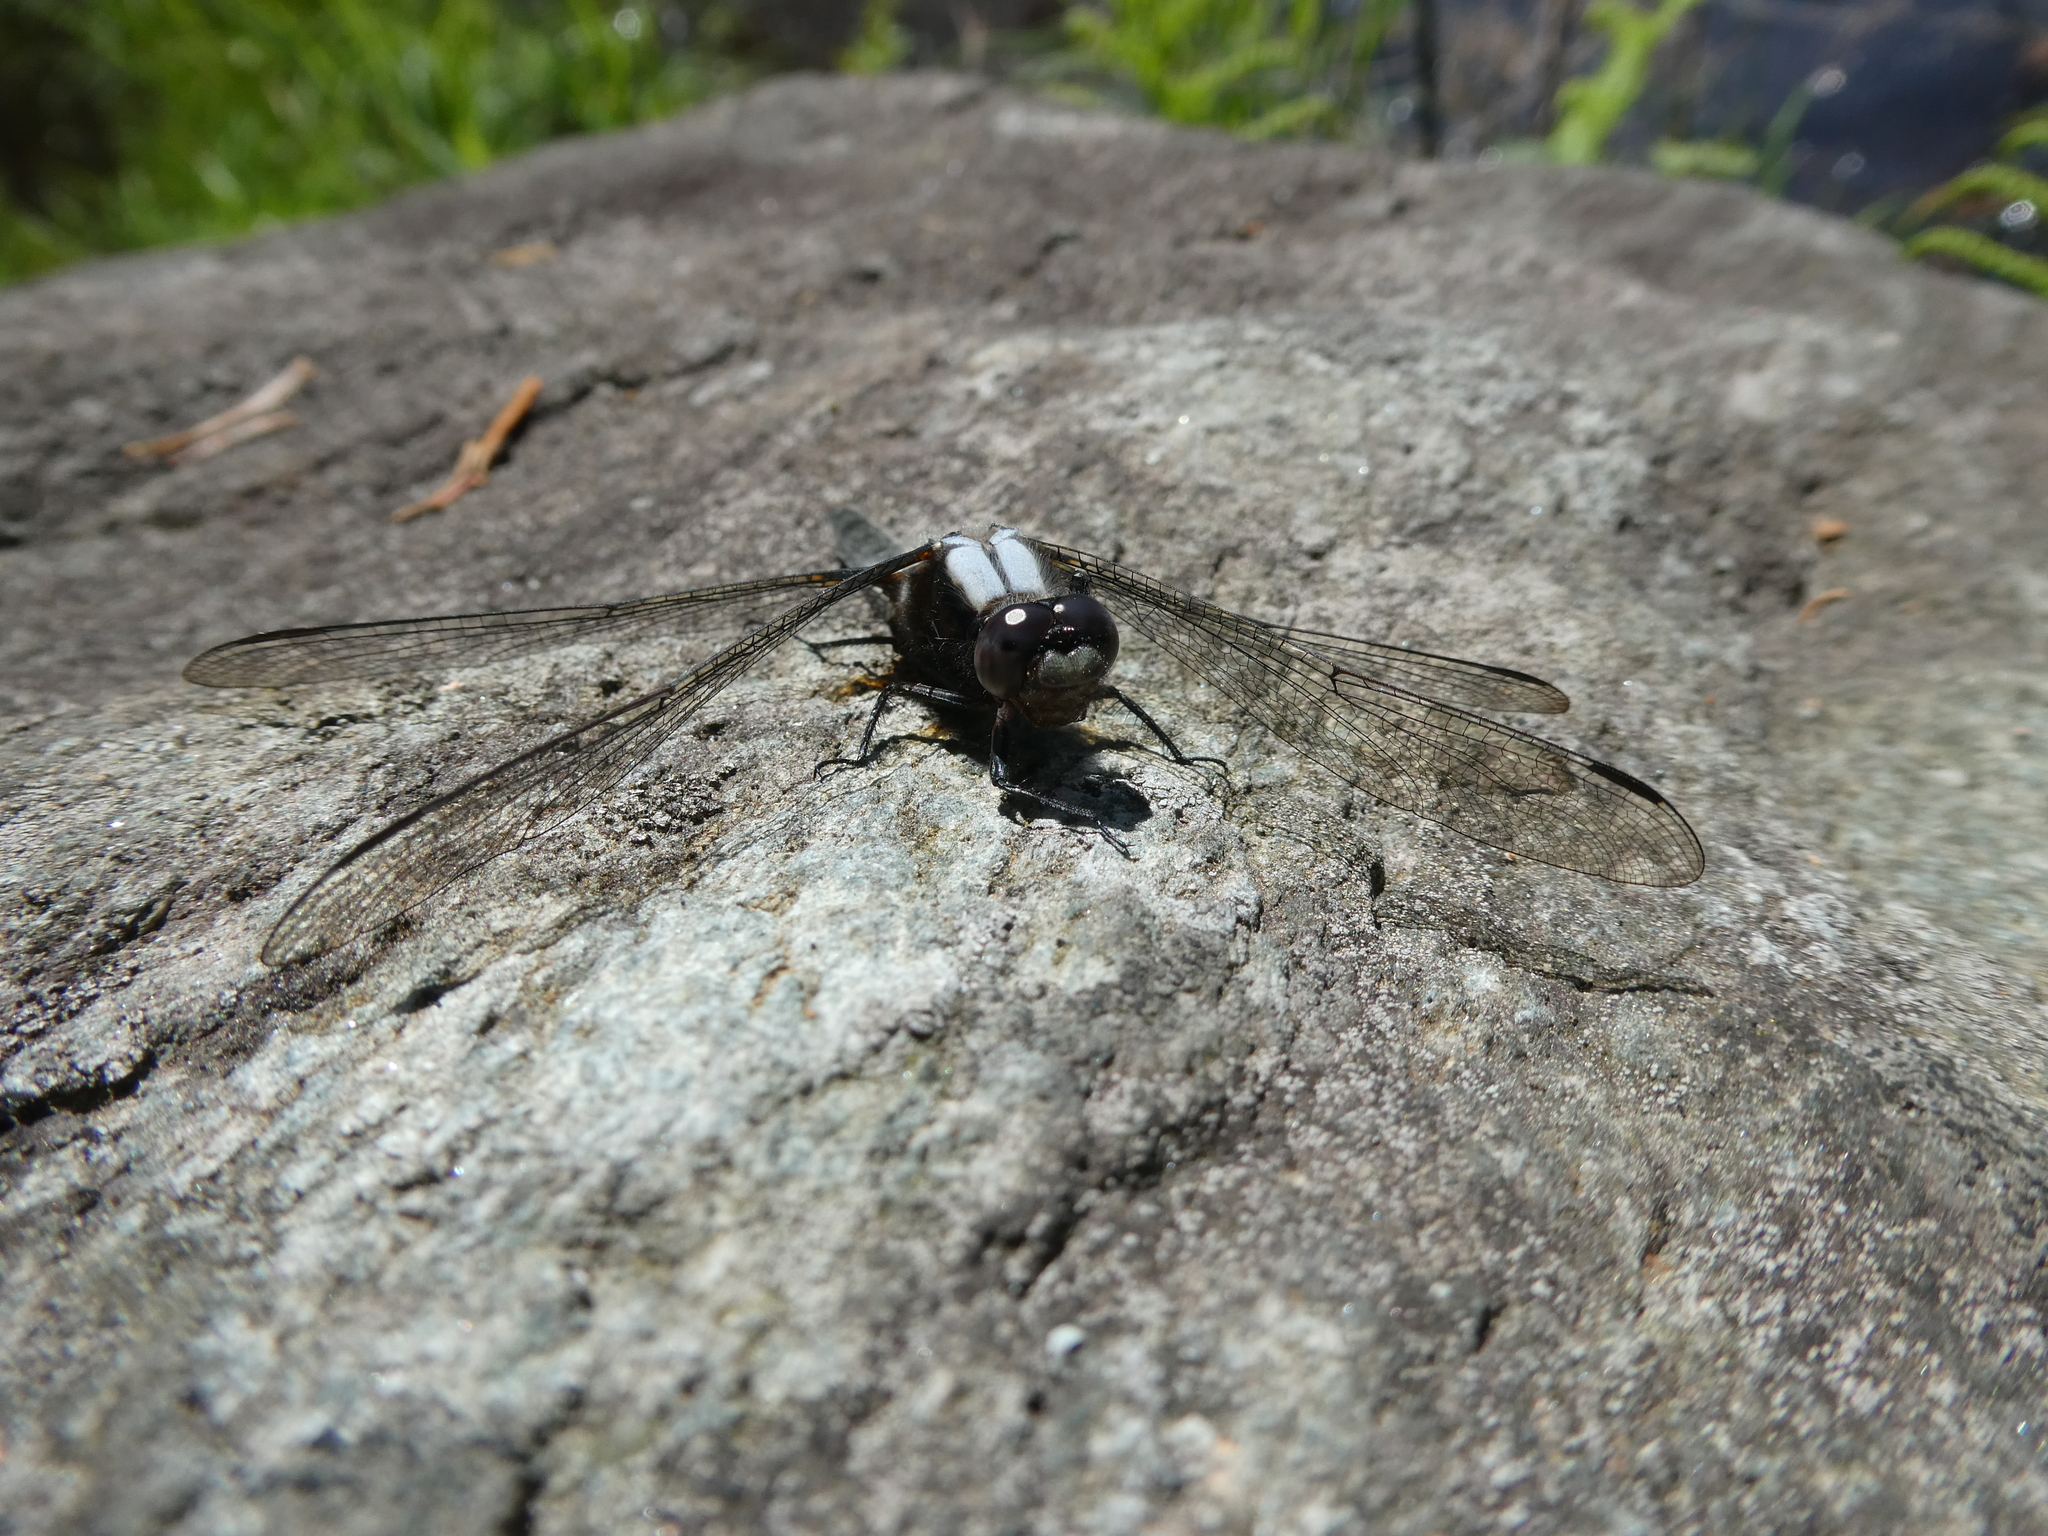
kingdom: Animalia
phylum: Arthropoda
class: Insecta
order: Odonata
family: Libellulidae
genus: Ladona
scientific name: Ladona julia
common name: Chalk-fronted corporal
